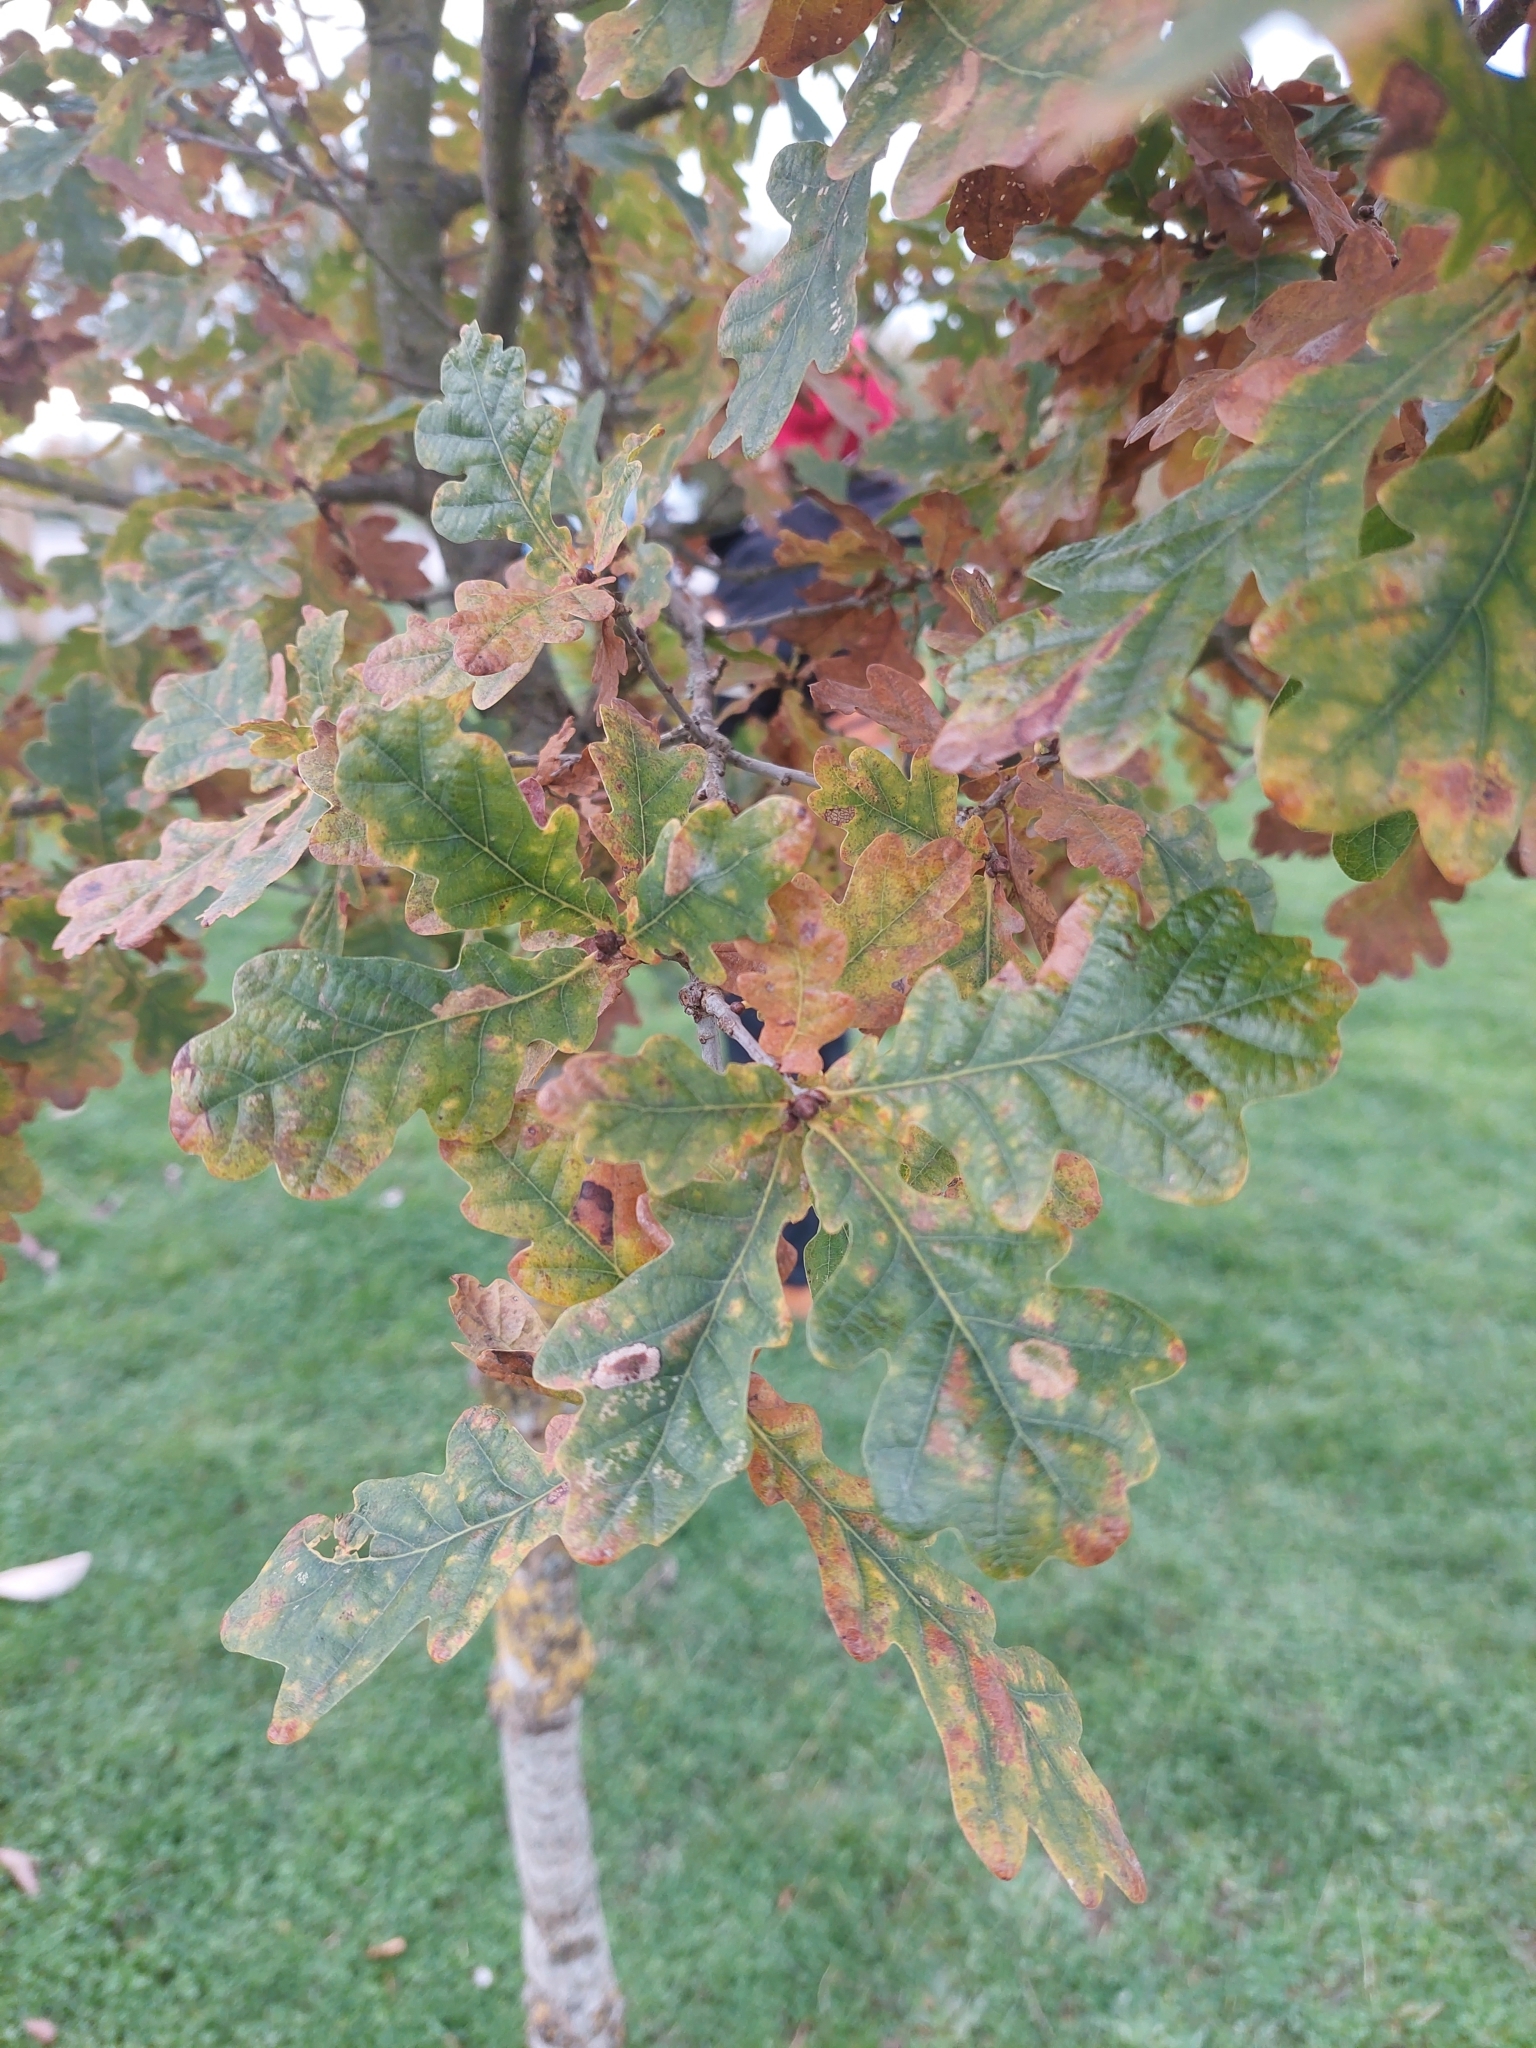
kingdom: Plantae
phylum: Tracheophyta
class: Magnoliopsida
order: Fagales
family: Fagaceae
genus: Quercus
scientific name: Quercus robur
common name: Pedunculate oak
